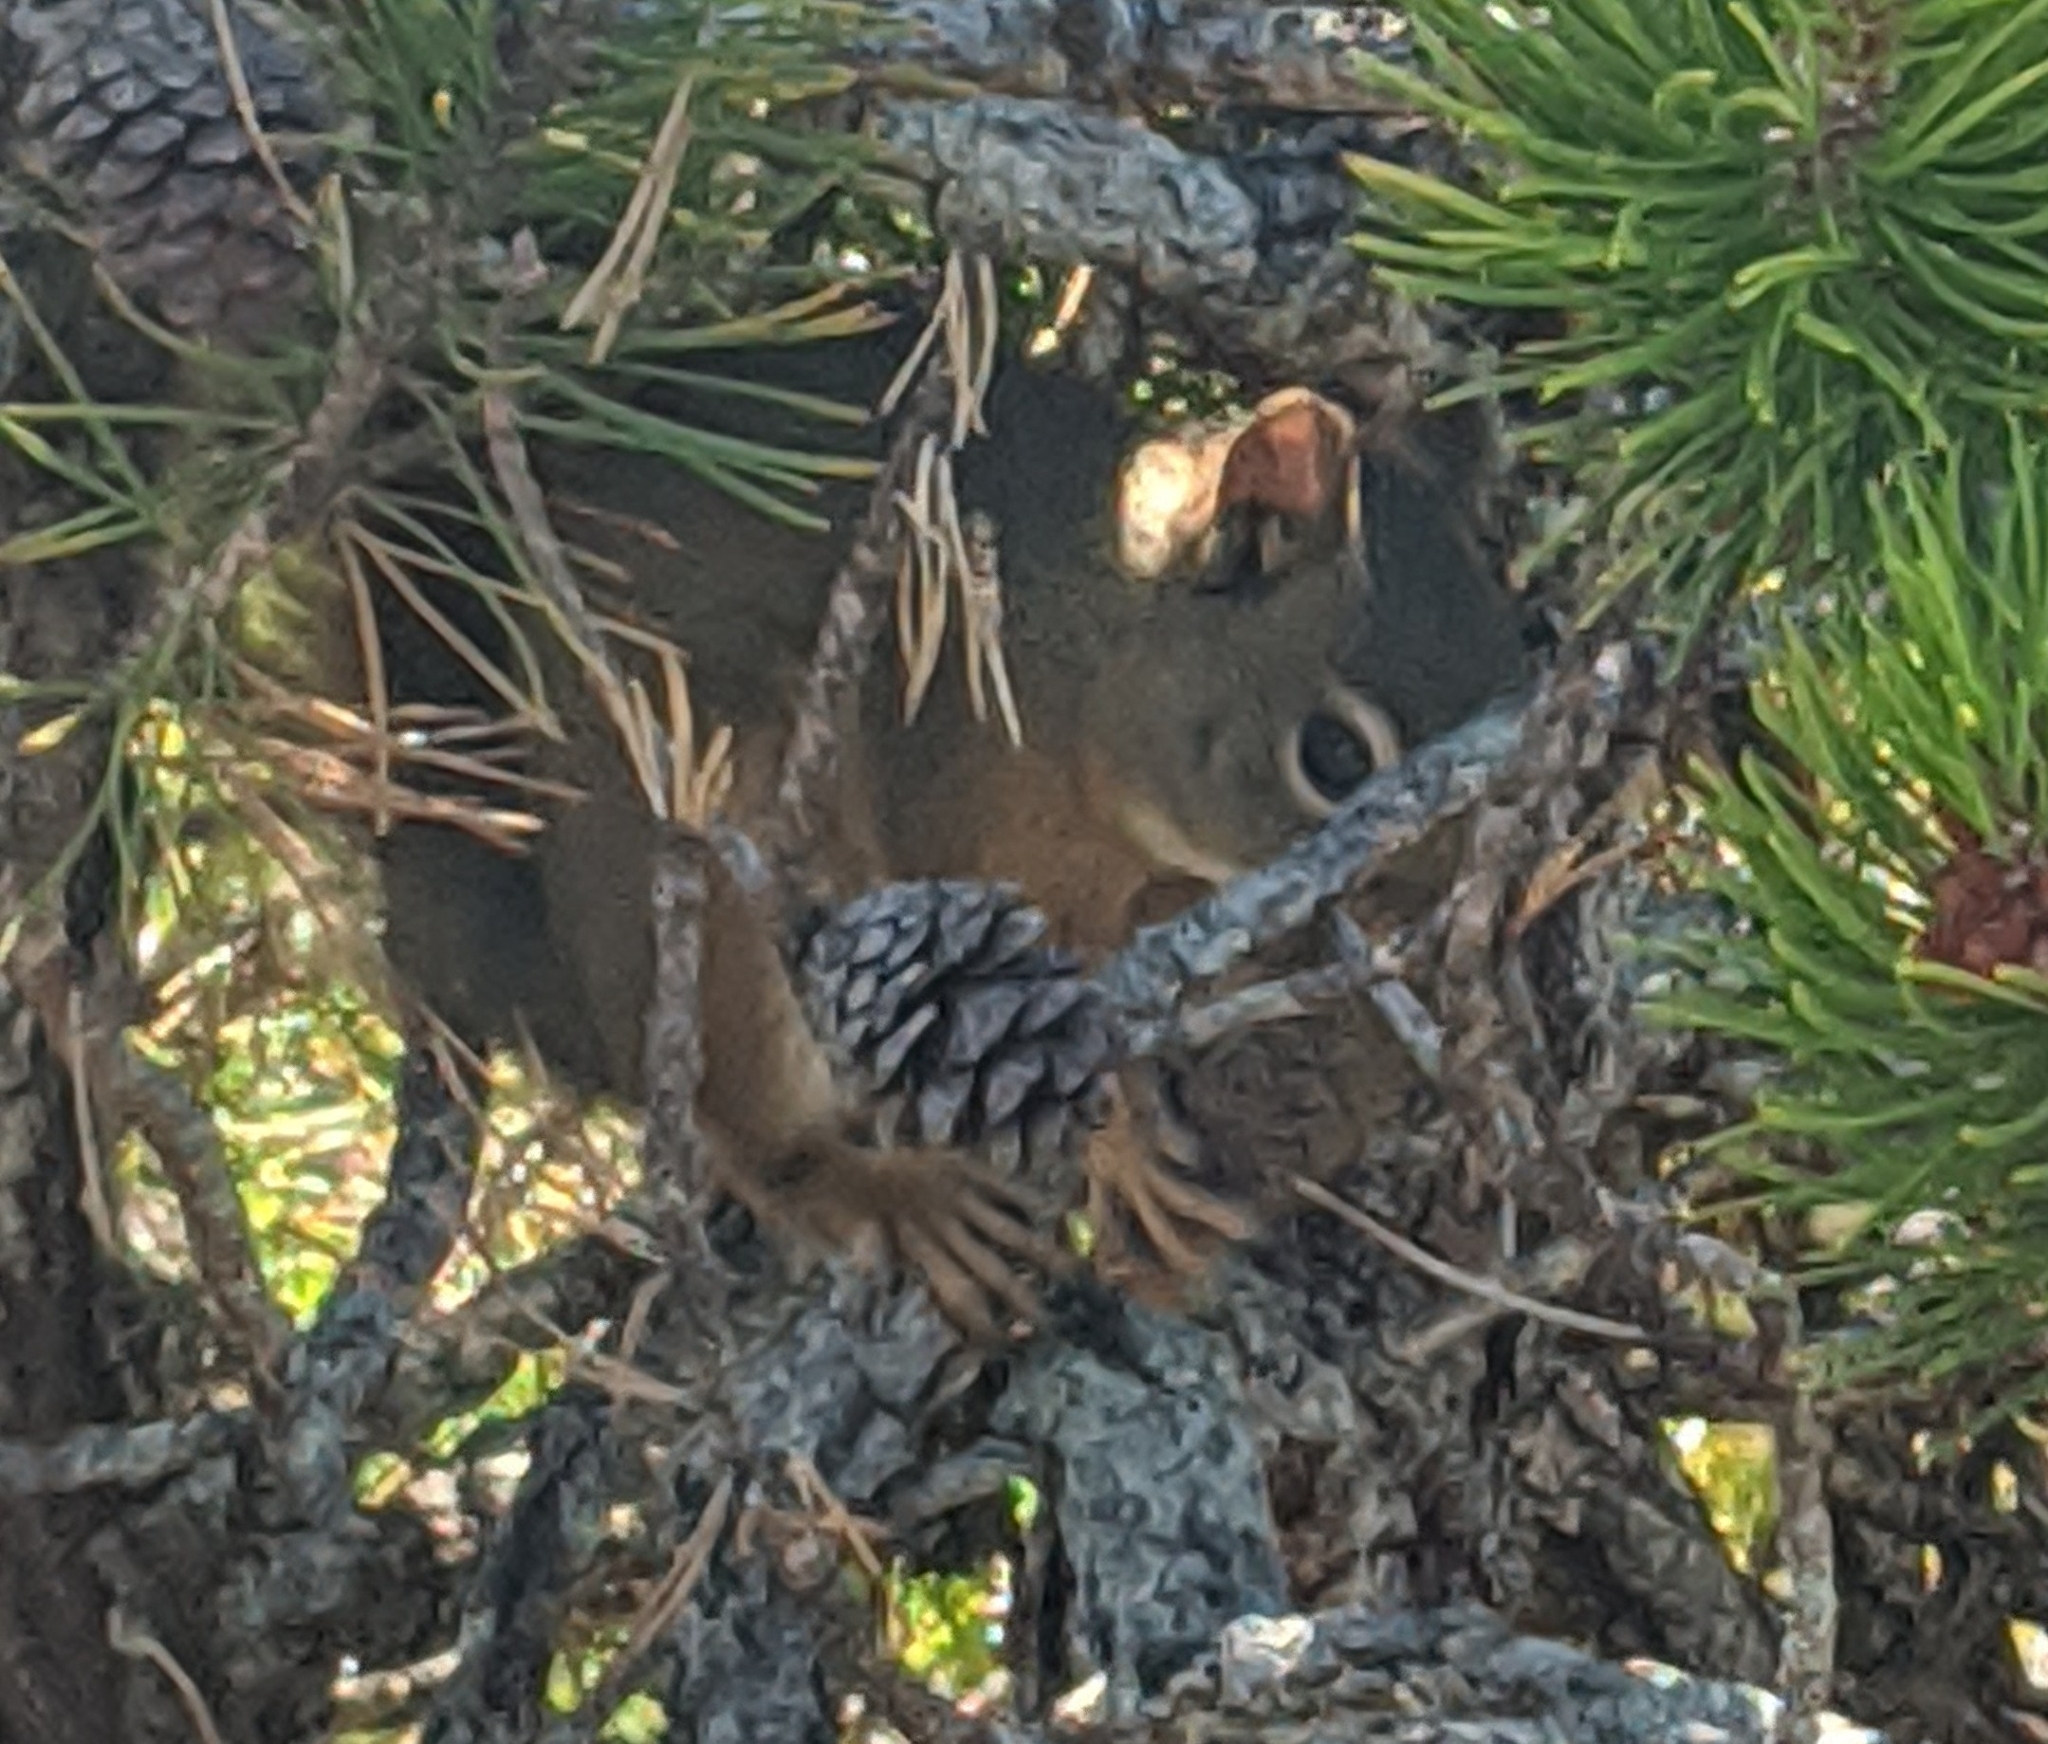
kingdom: Animalia
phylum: Chordata
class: Mammalia
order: Rodentia
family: Sciuridae
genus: Tamiasciurus
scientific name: Tamiasciurus hudsonicus
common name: Red squirrel
